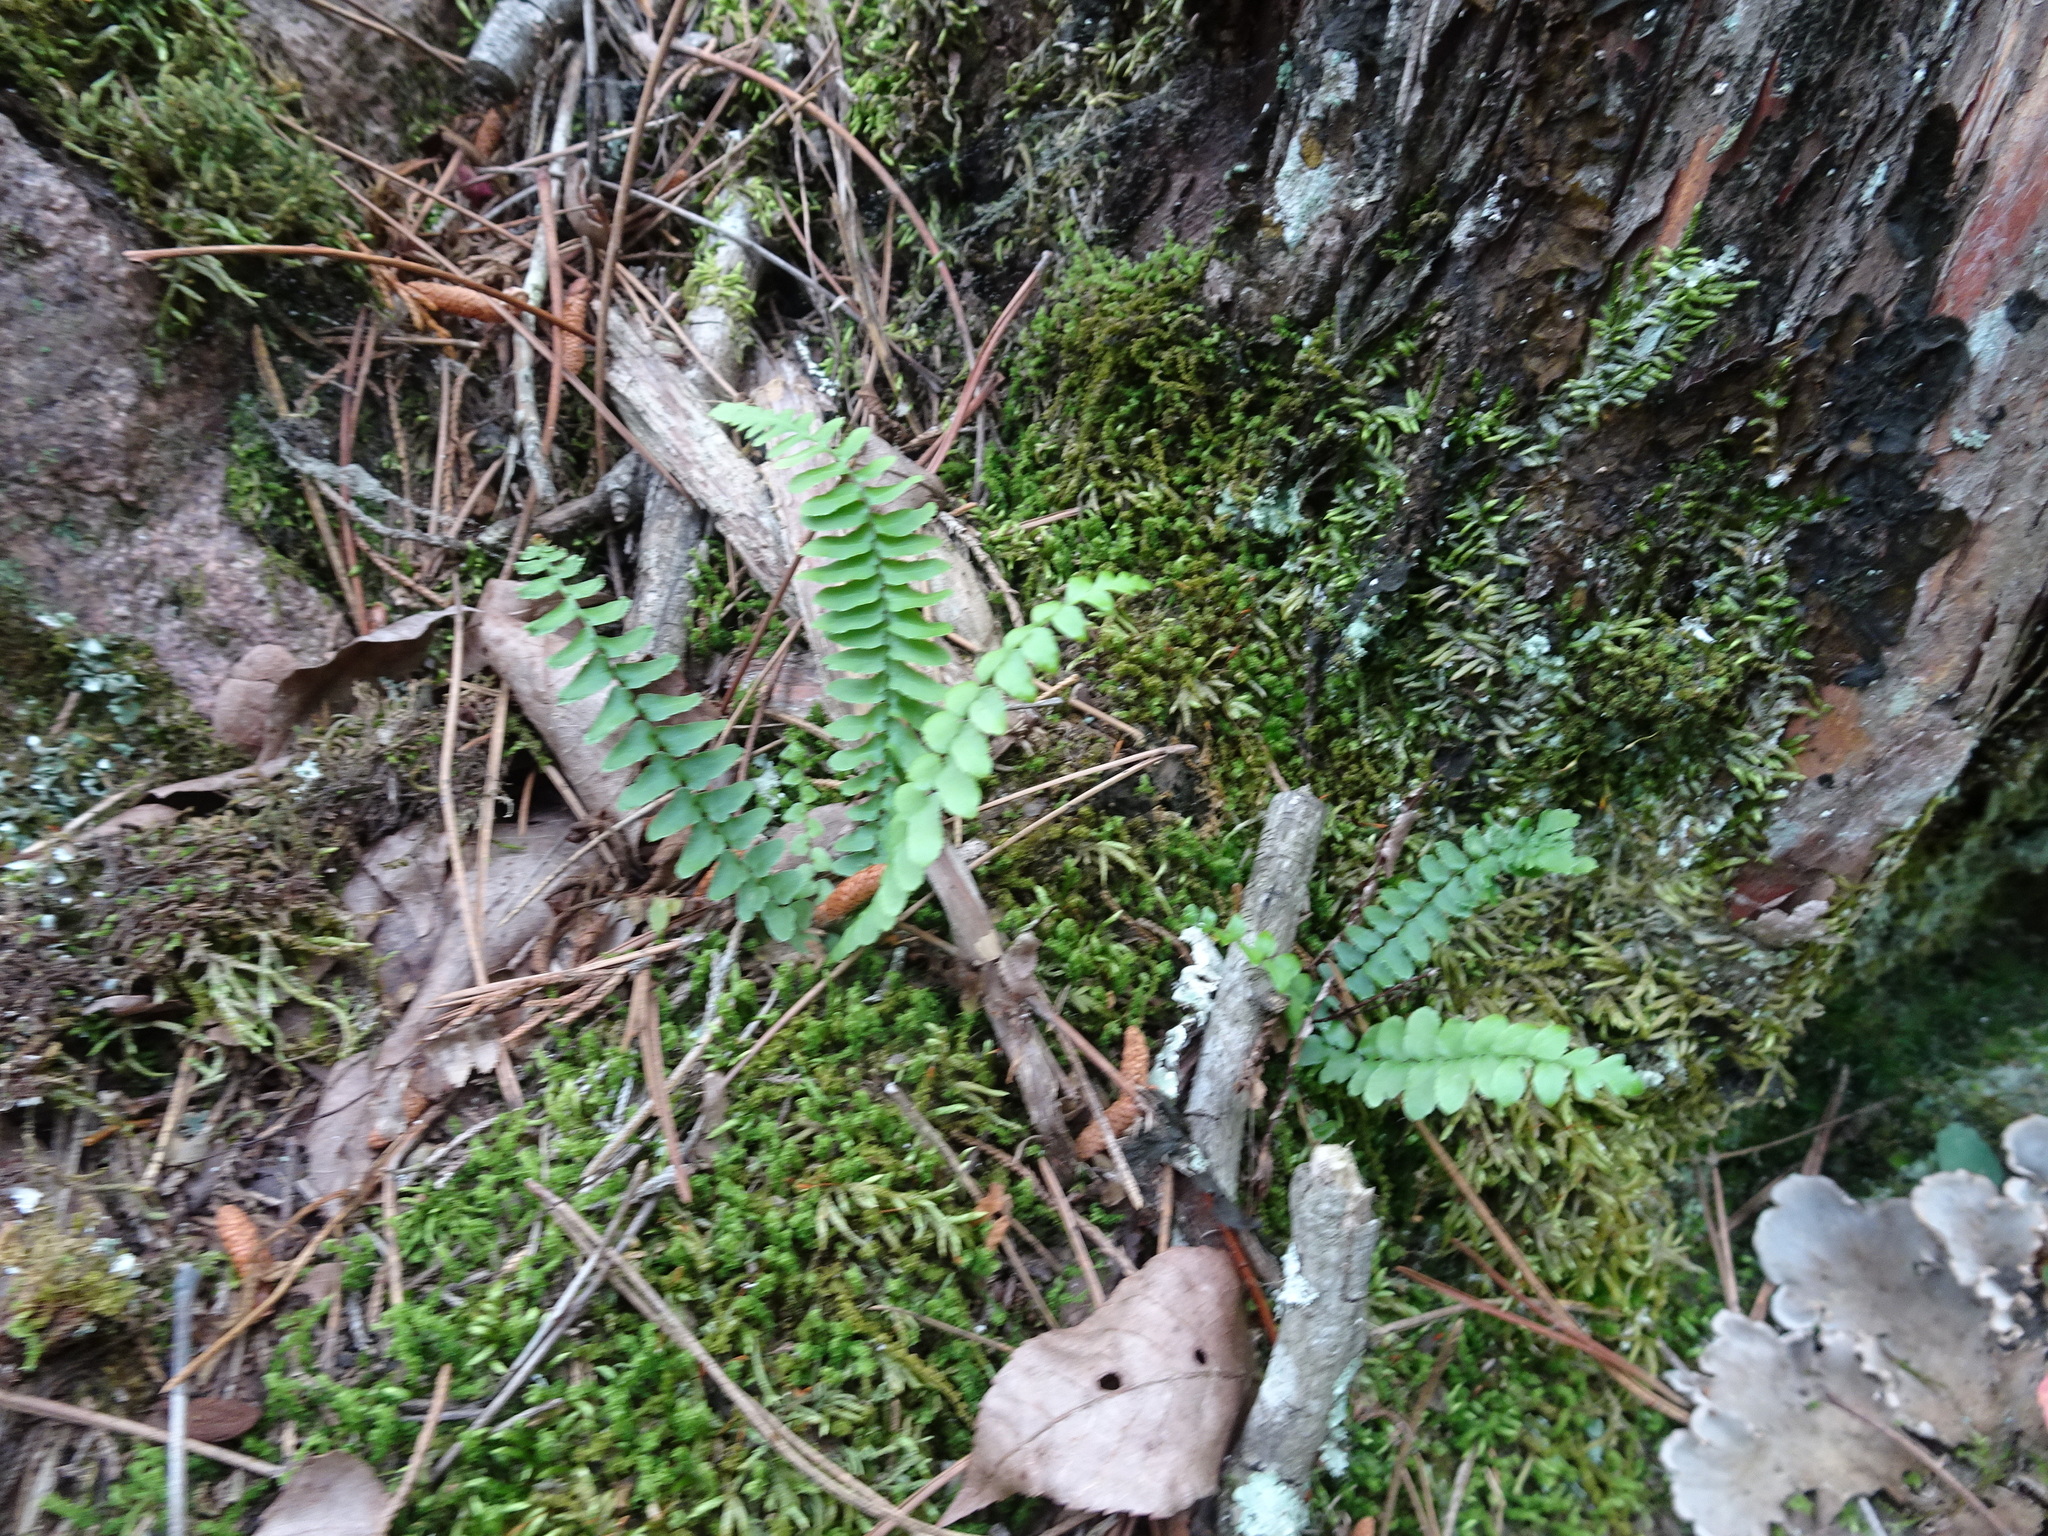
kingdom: Plantae
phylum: Tracheophyta
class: Polypodiopsida
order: Polypodiales
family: Aspleniaceae
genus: Asplenium
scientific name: Asplenium platyneuron
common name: Ebony spleenwort
